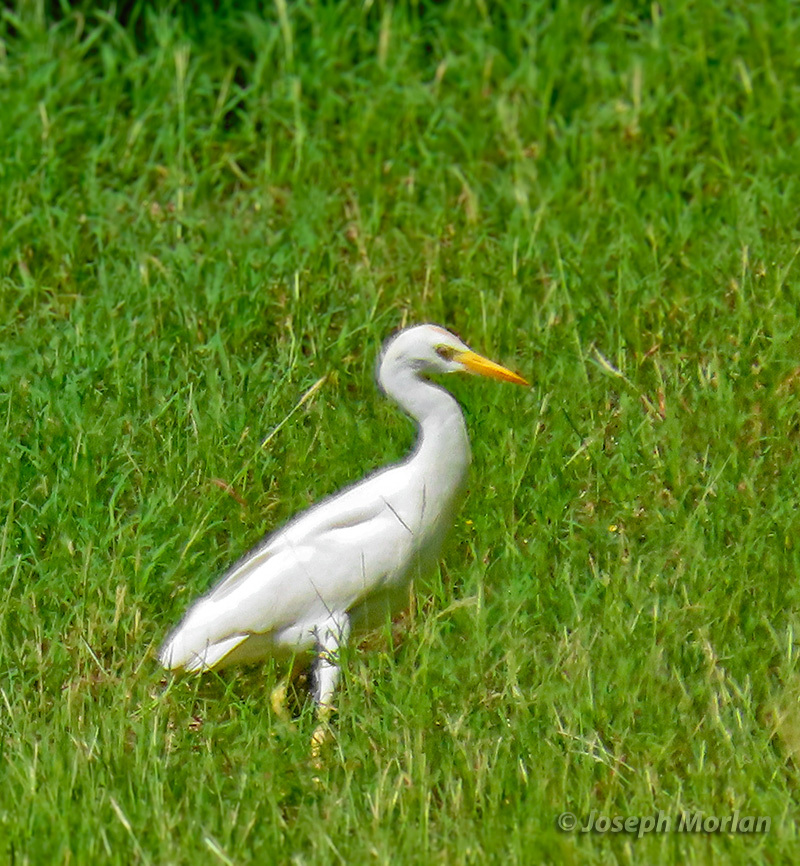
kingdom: Animalia
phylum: Chordata
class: Aves
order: Pelecaniformes
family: Ardeidae
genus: Bubulcus
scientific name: Bubulcus ibis
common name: Cattle egret
